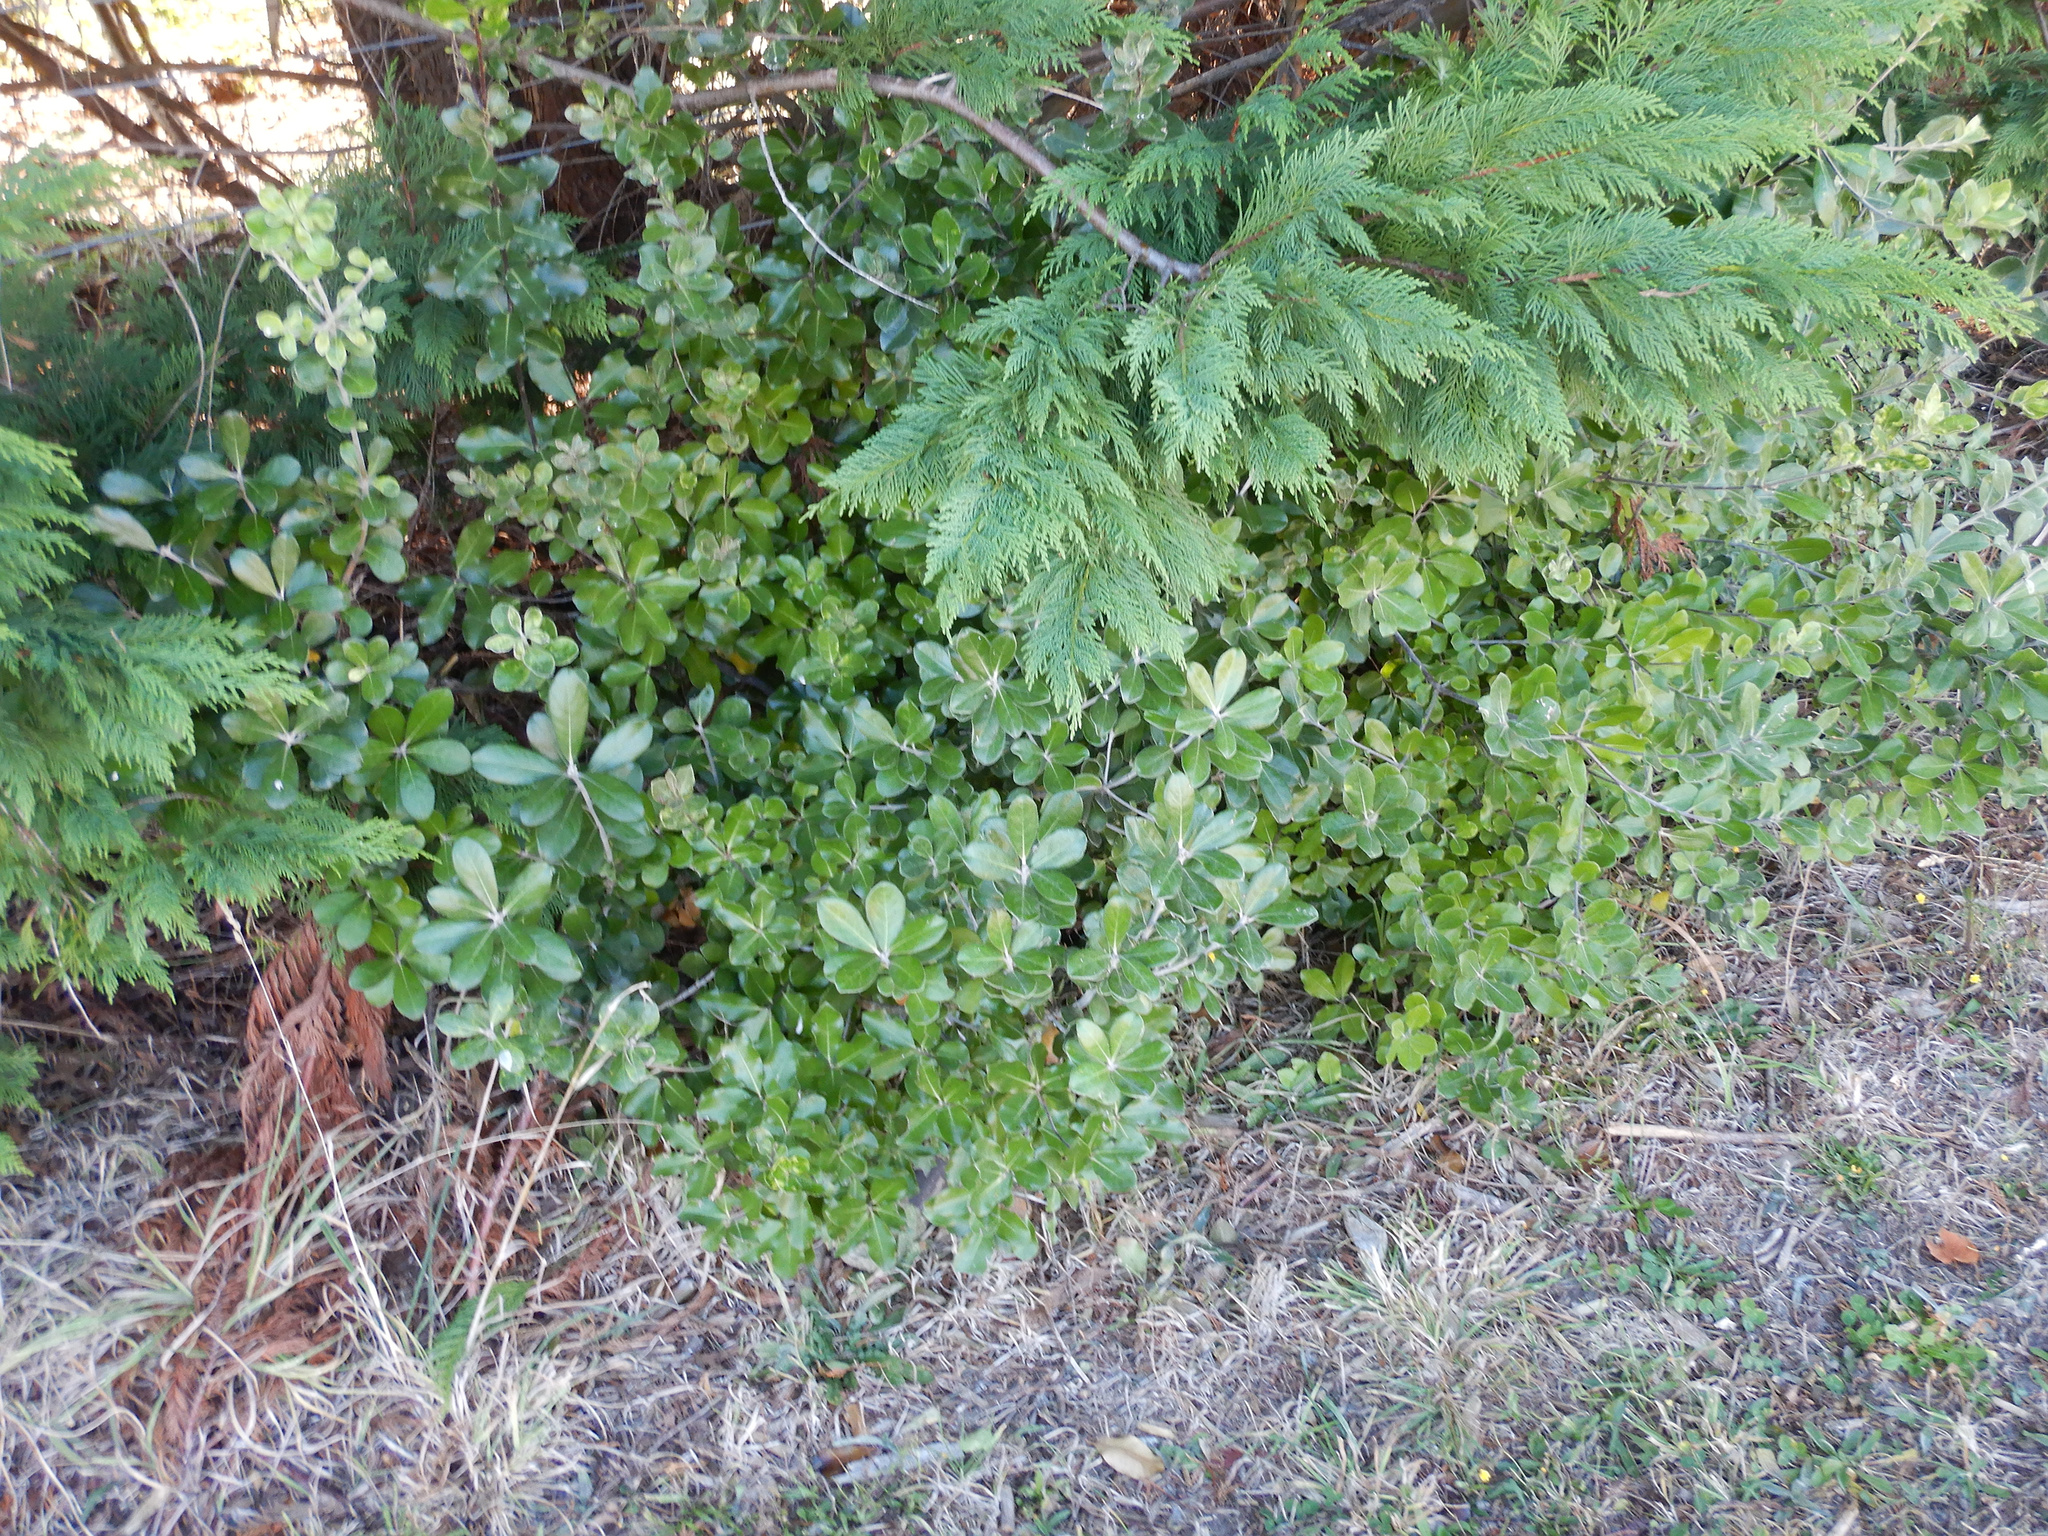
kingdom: Plantae
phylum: Tracheophyta
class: Magnoliopsida
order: Apiales
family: Pittosporaceae
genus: Pittosporum
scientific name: Pittosporum crassifolium
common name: Karo
